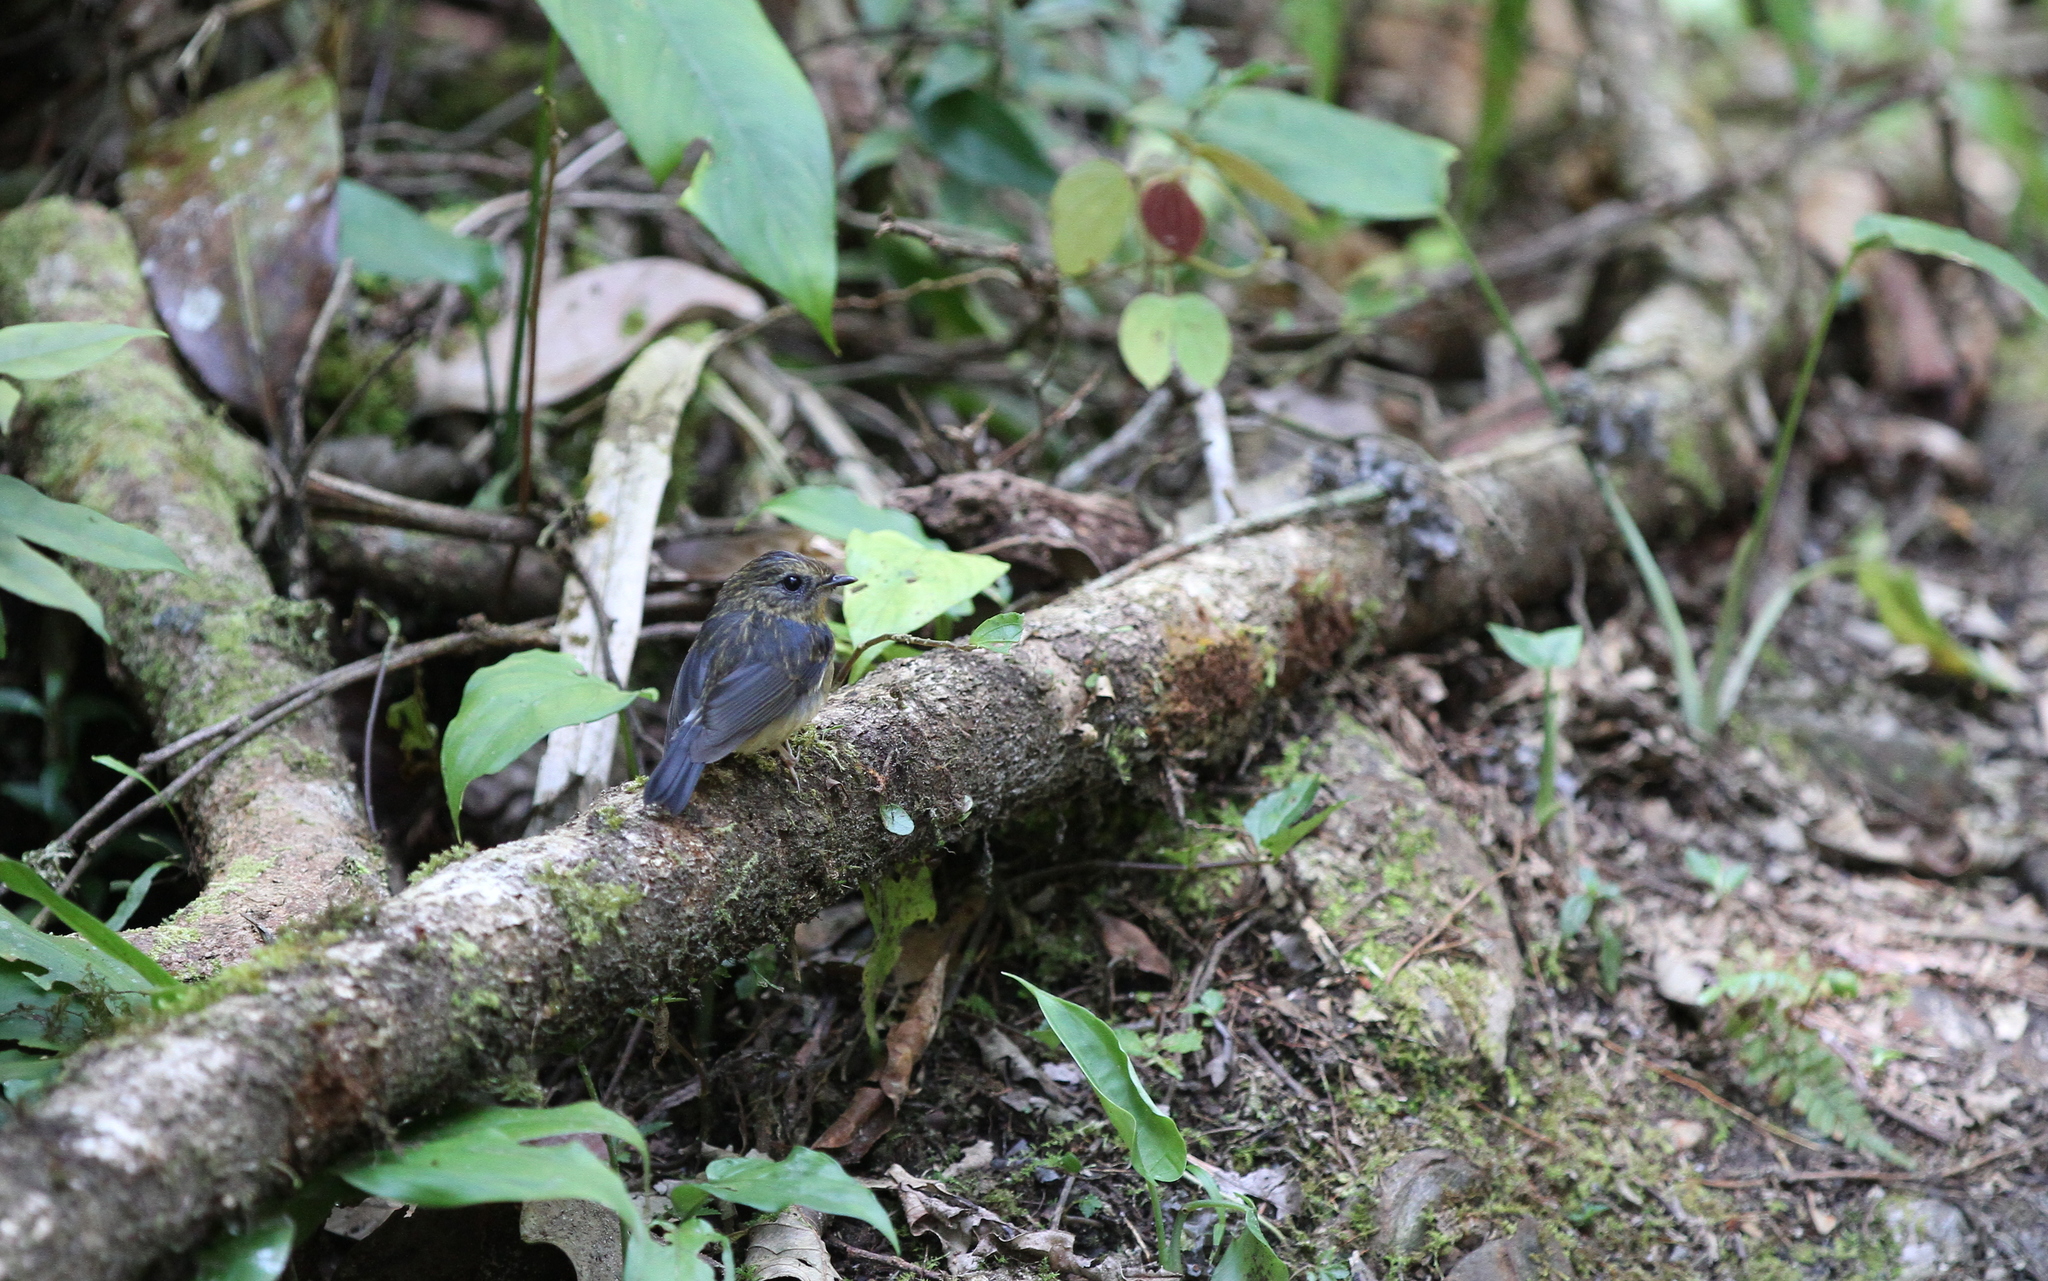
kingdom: Animalia
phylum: Chordata
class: Aves
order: Passeriformes
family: Muscicapidae
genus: Ficedula
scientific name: Ficedula hyperythra
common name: Snowy-browed flycatcher
